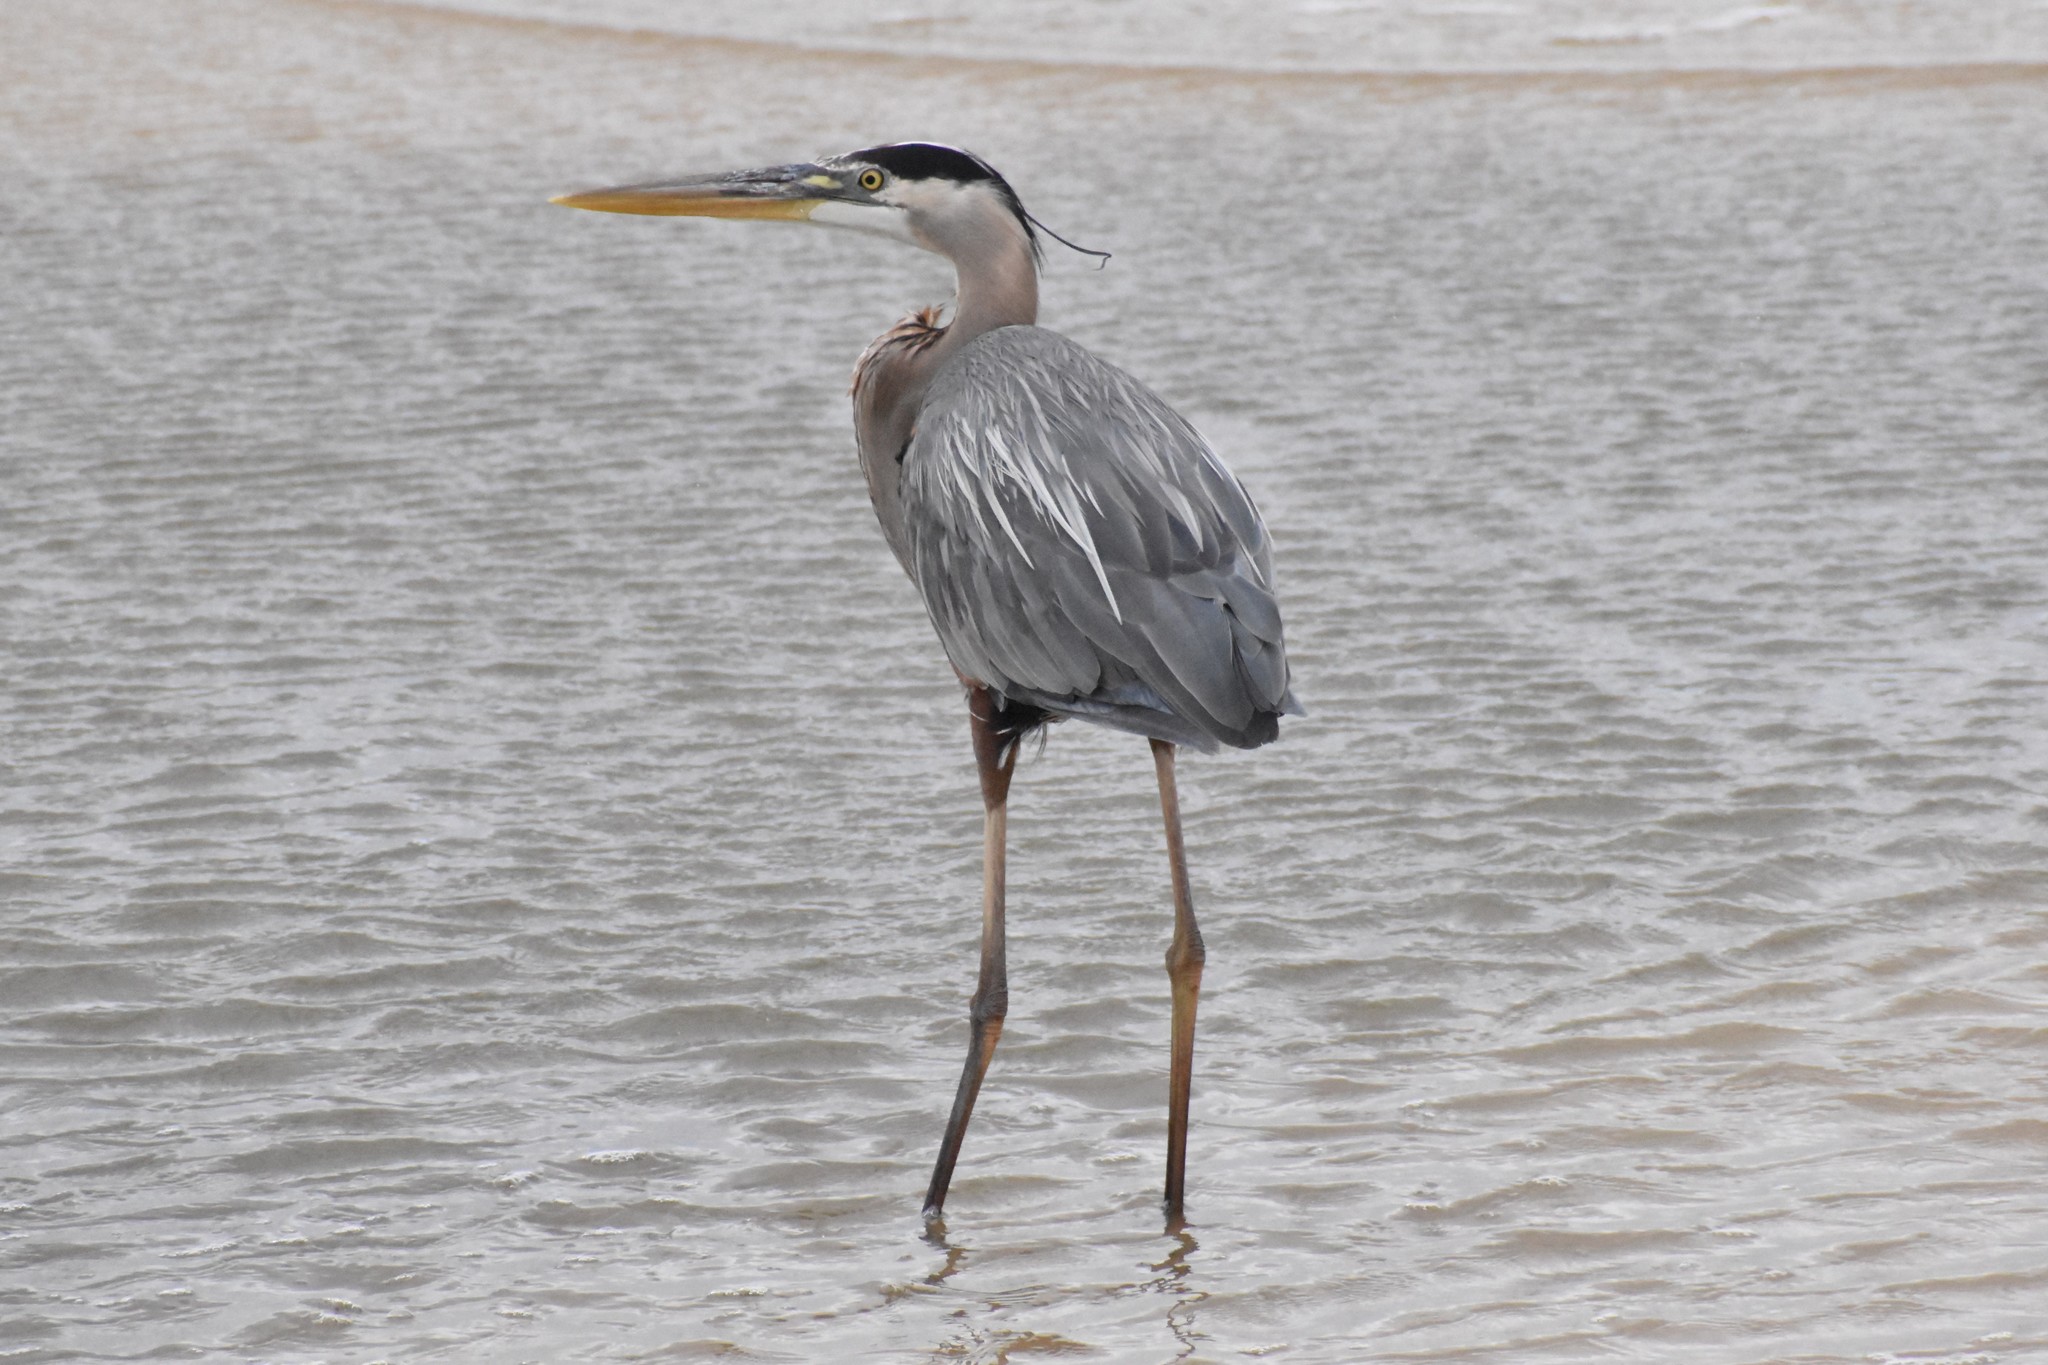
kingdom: Animalia
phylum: Chordata
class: Aves
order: Pelecaniformes
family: Ardeidae
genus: Ardea
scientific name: Ardea herodias
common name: Great blue heron
